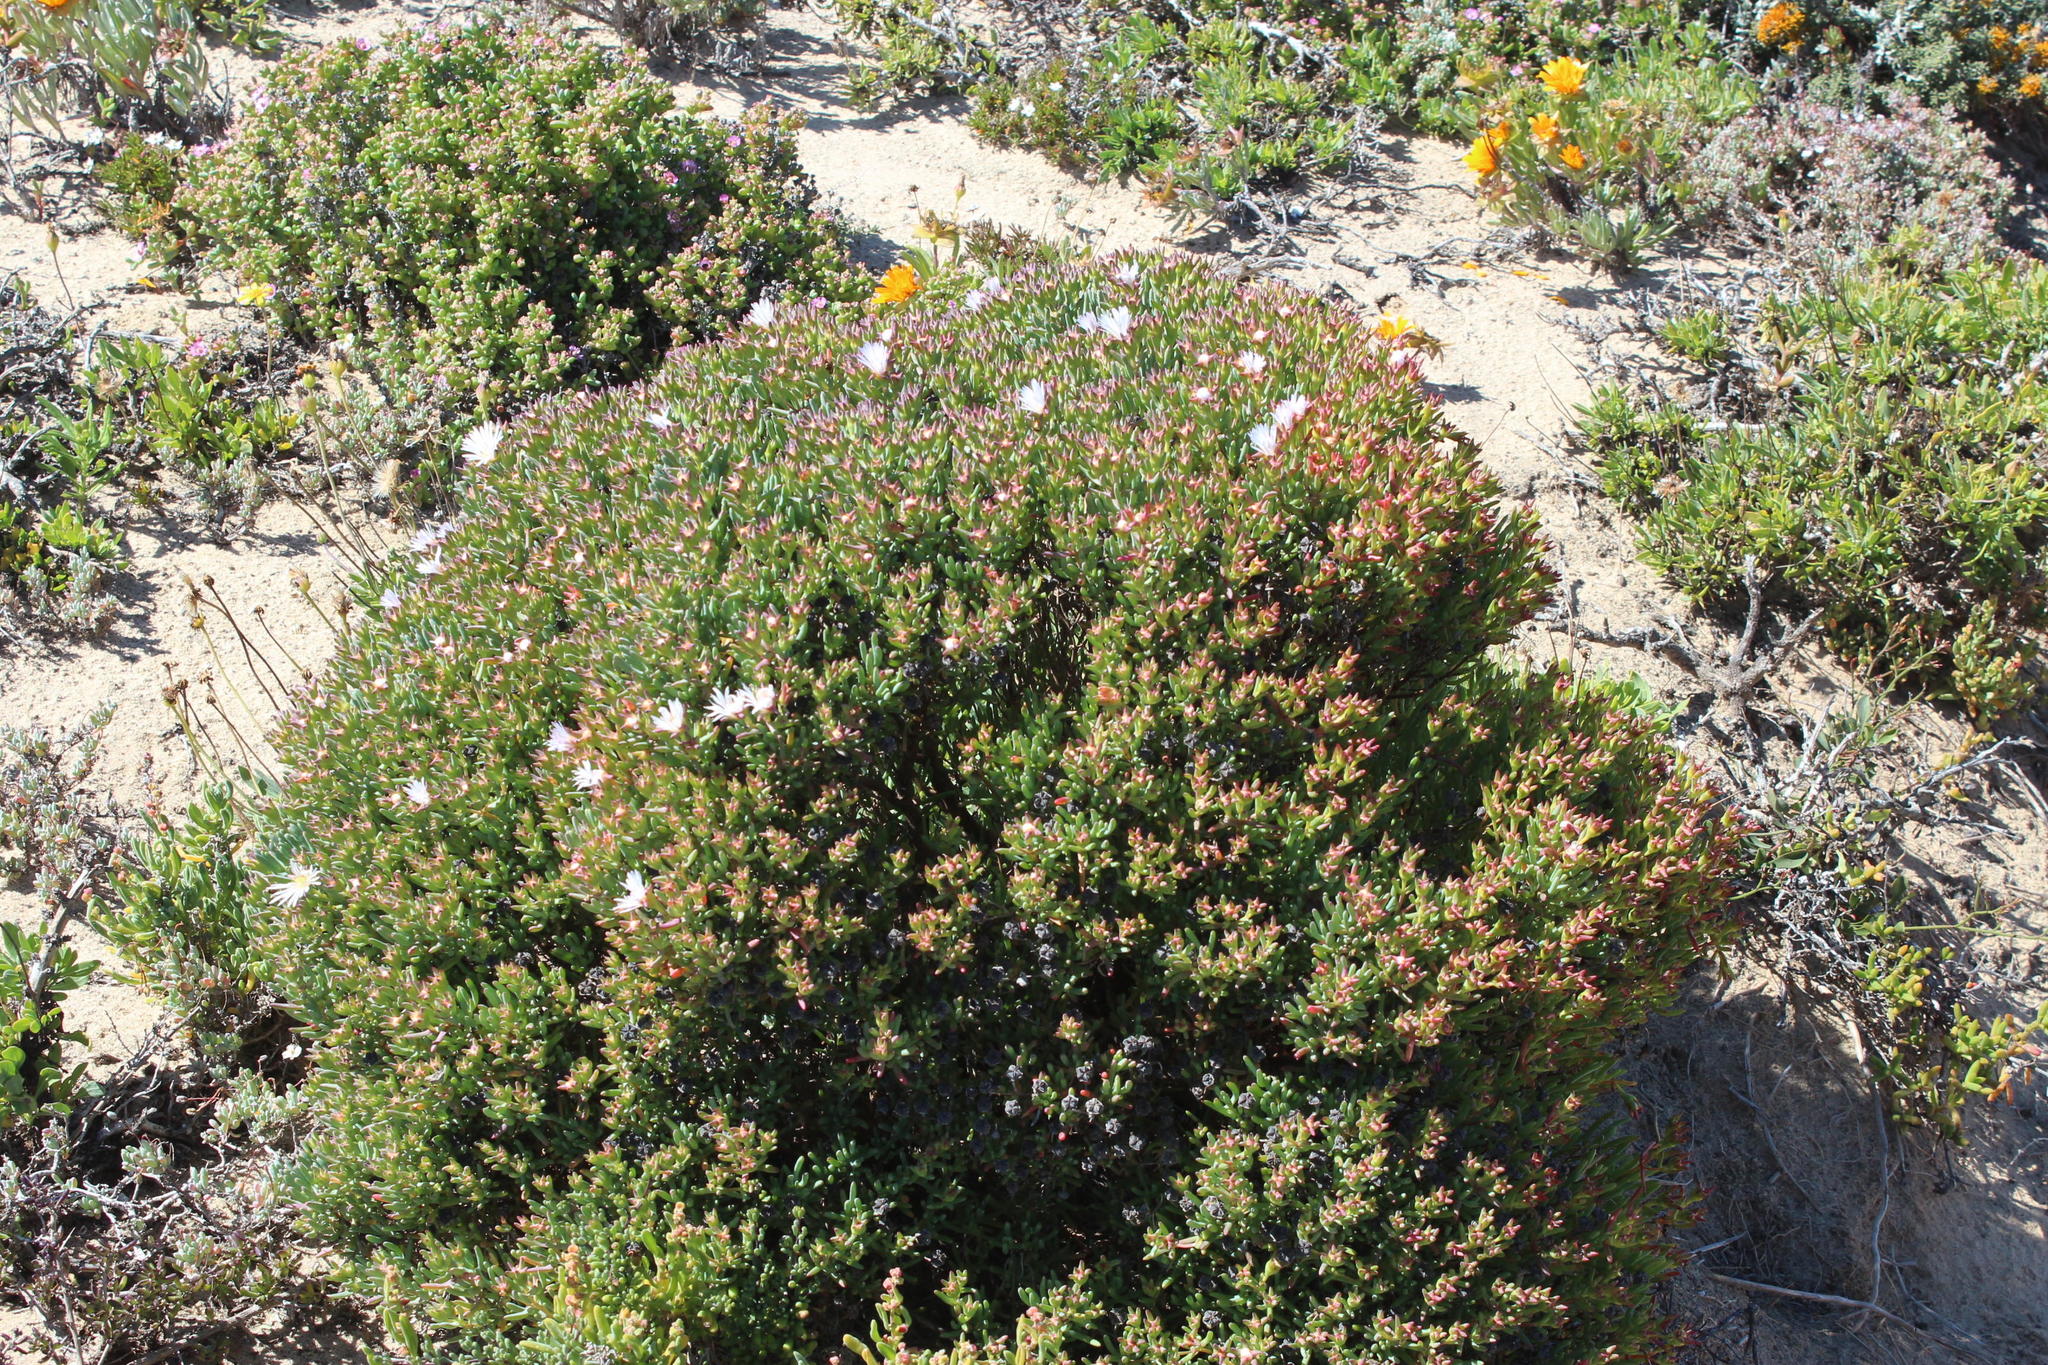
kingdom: Plantae
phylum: Tracheophyta
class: Magnoliopsida
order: Caryophyllales
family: Aizoaceae
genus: Lampranthus
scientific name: Lampranthus stipulaceus
